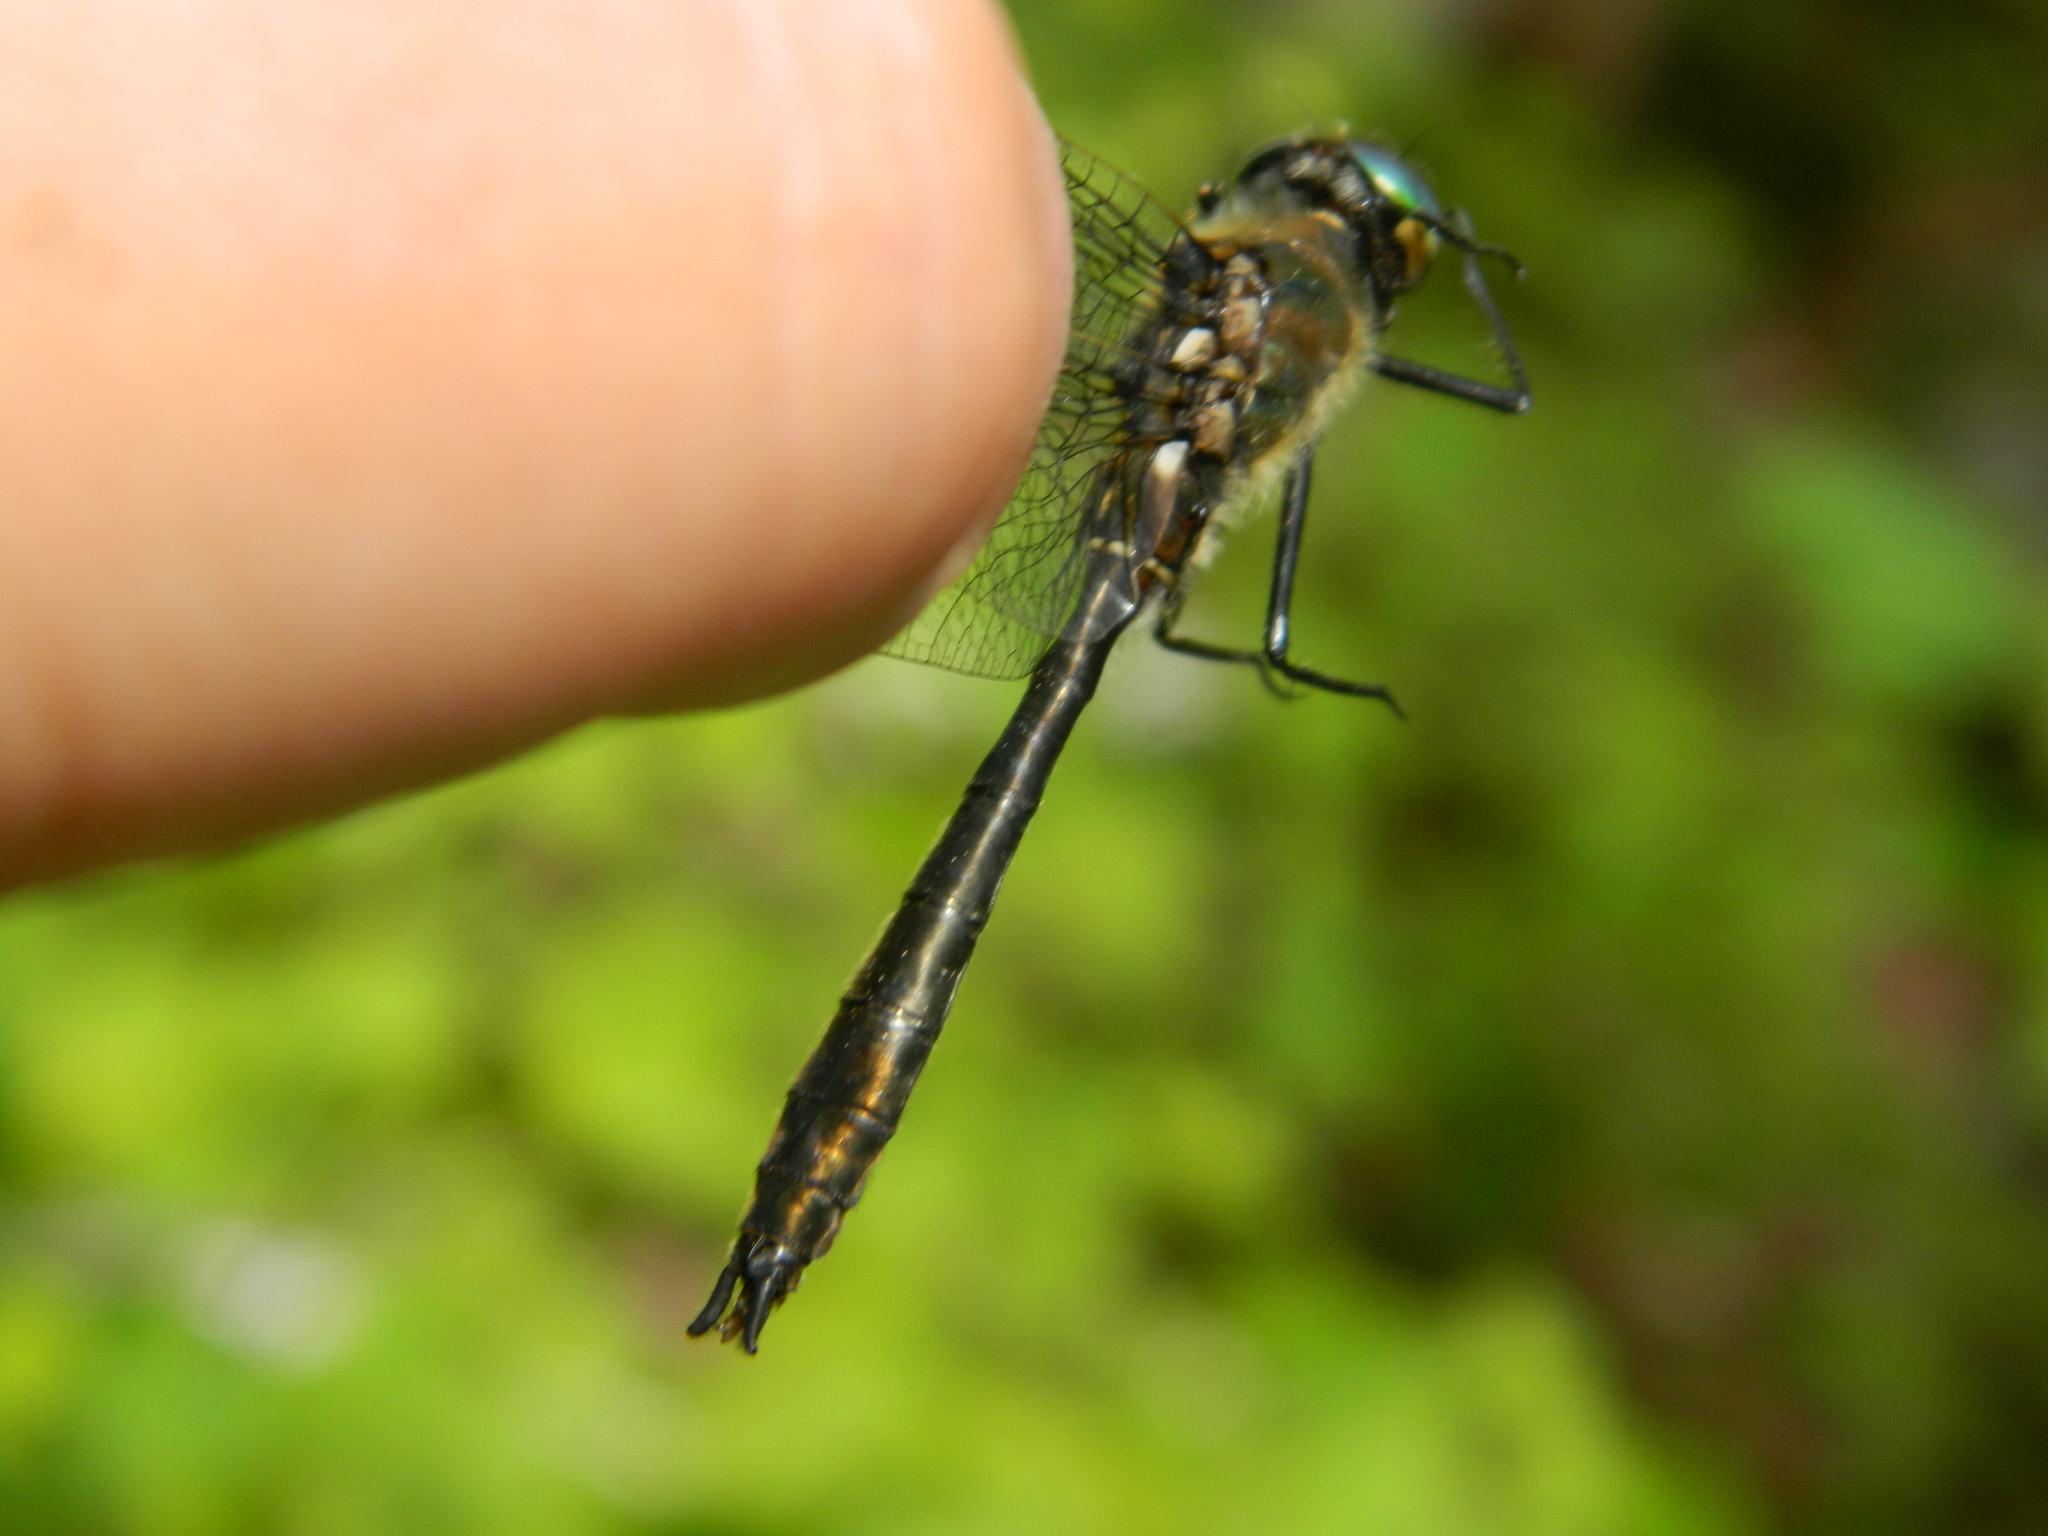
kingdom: Animalia
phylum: Arthropoda
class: Insecta
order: Odonata
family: Corduliidae
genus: Cordulia
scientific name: Cordulia shurtleffii
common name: American emerald
